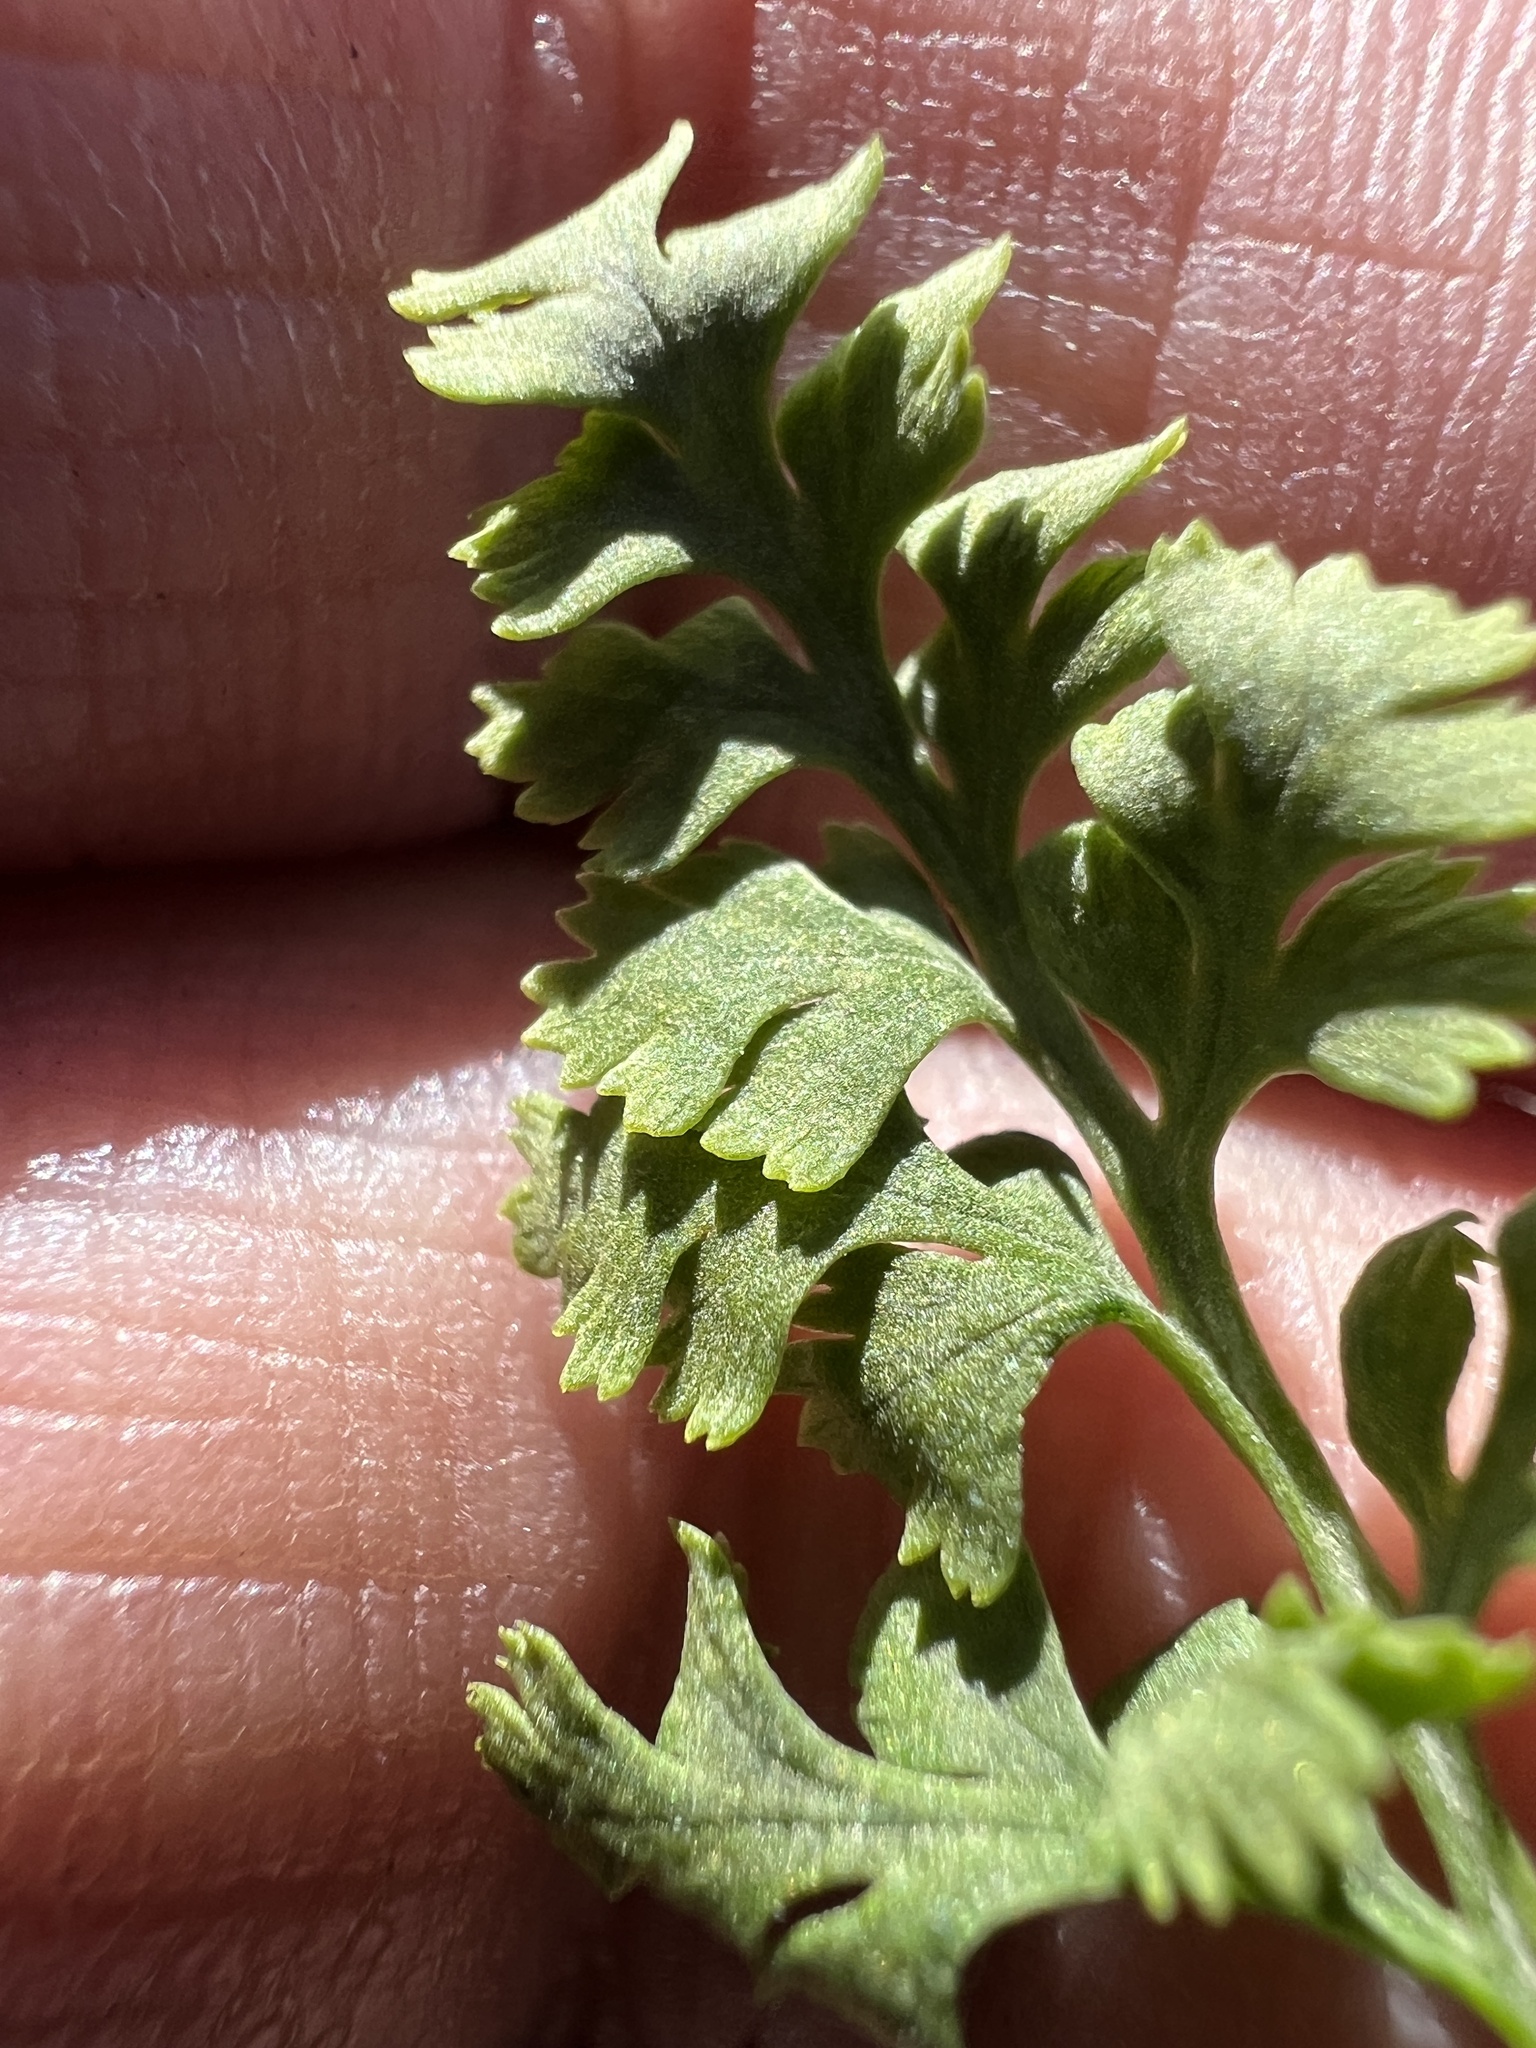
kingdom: Plantae
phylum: Tracheophyta
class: Polypodiopsida
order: Polypodiales
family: Pteridaceae
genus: Cryptogramma
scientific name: Cryptogramma cascadensis
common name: Cascade parsley fern
